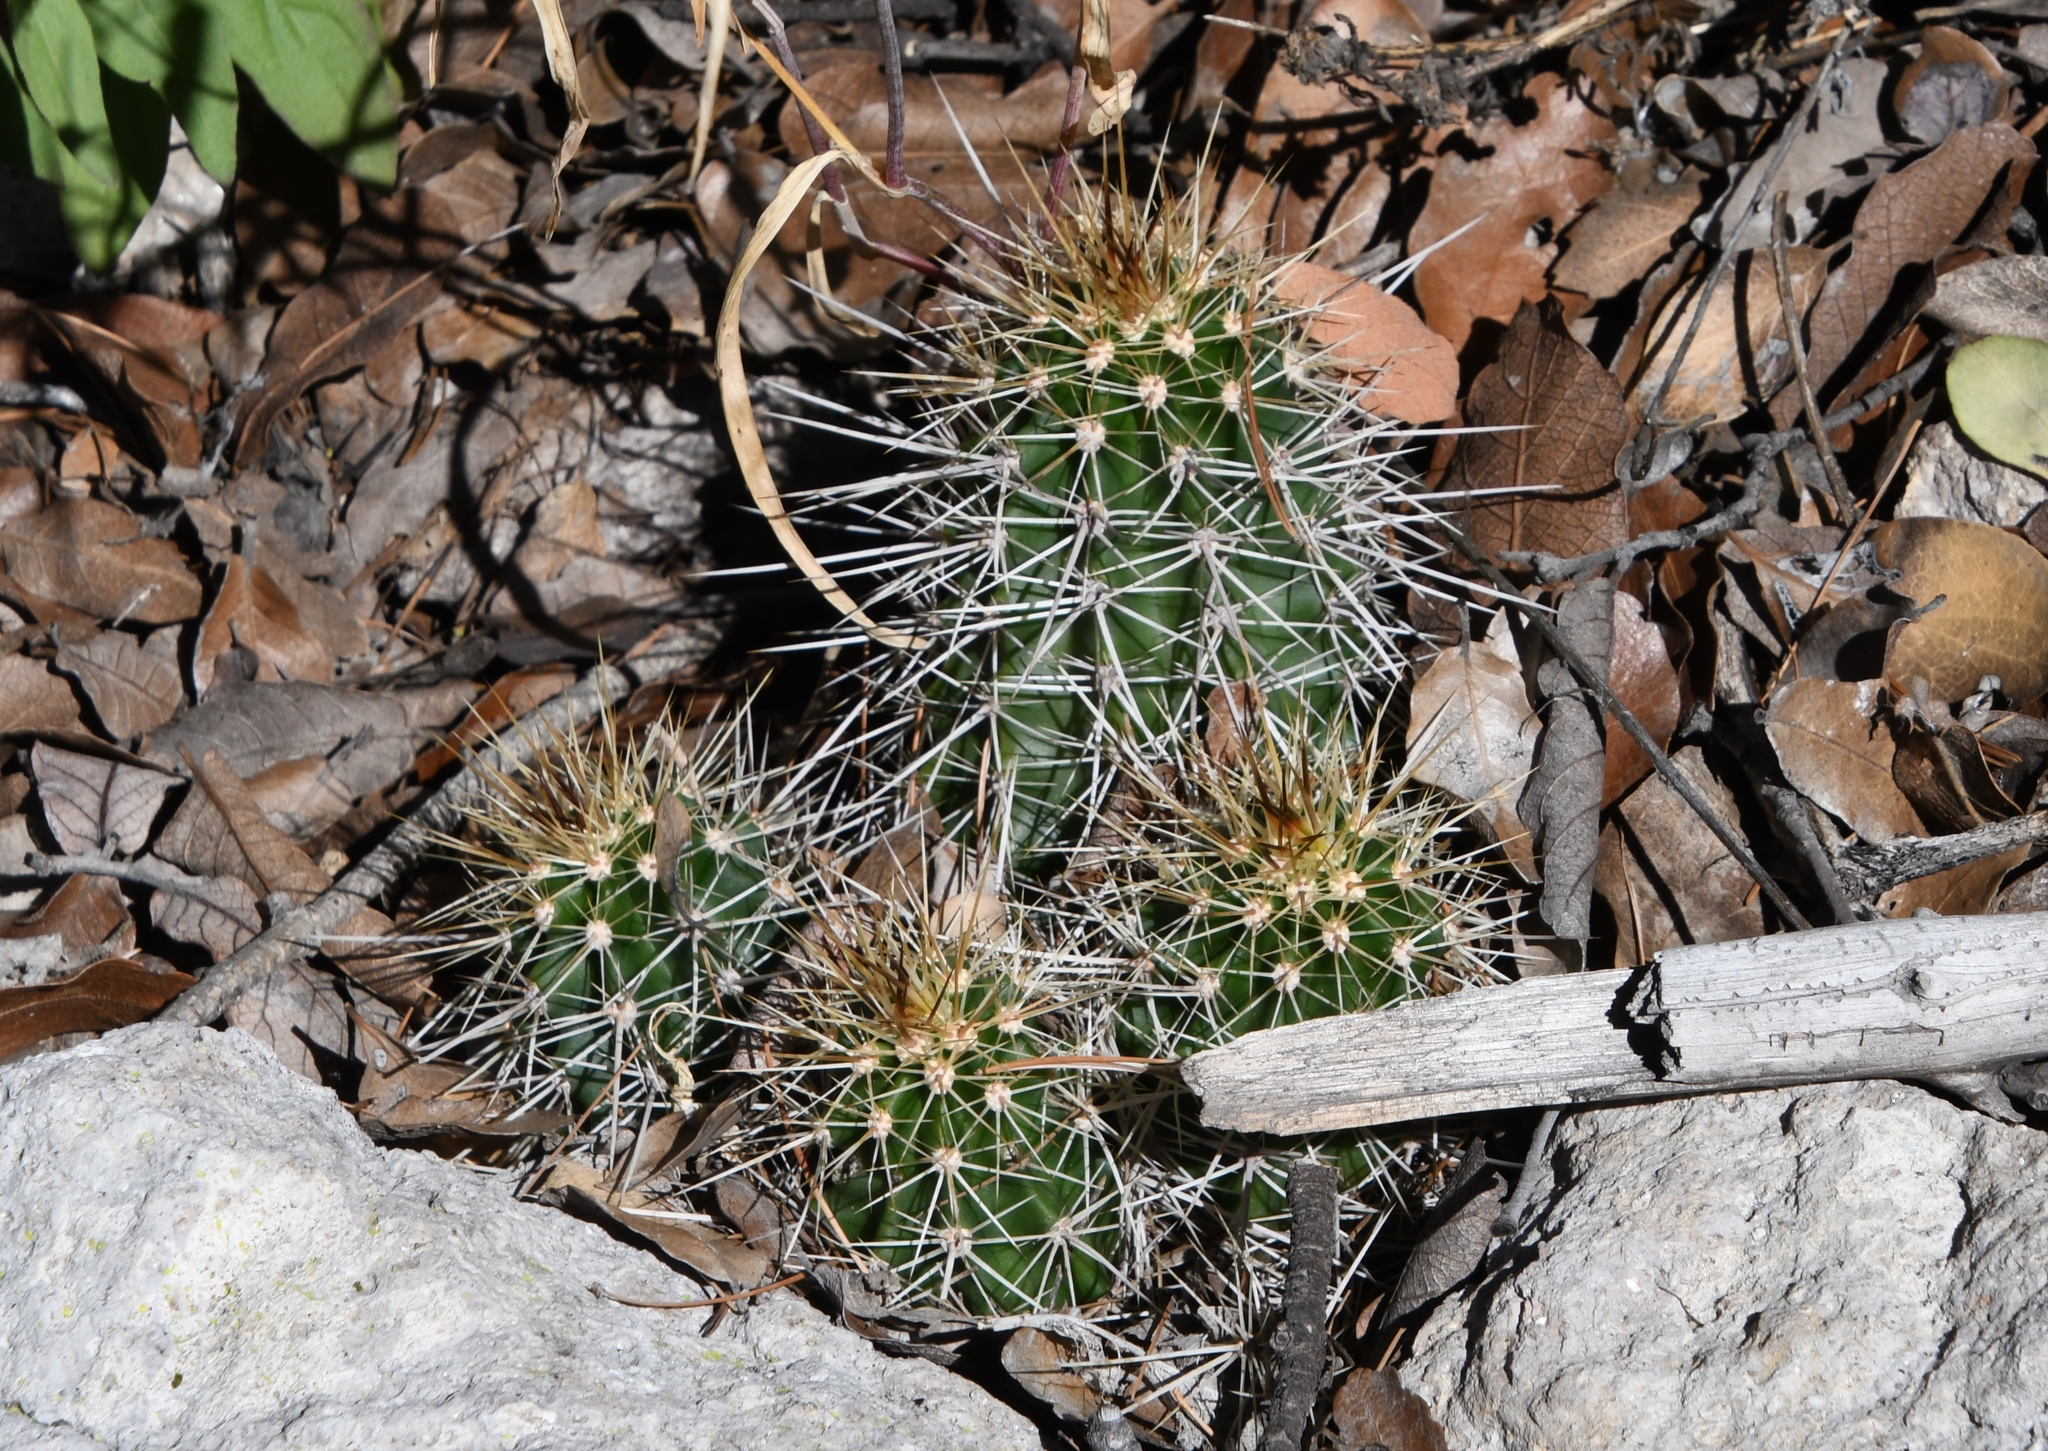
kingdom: Plantae
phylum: Tracheophyta
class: Magnoliopsida
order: Caryophyllales
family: Cactaceae
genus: Echinocereus
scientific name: Echinocereus coccineus
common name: Scarlet hedgehog cactus
